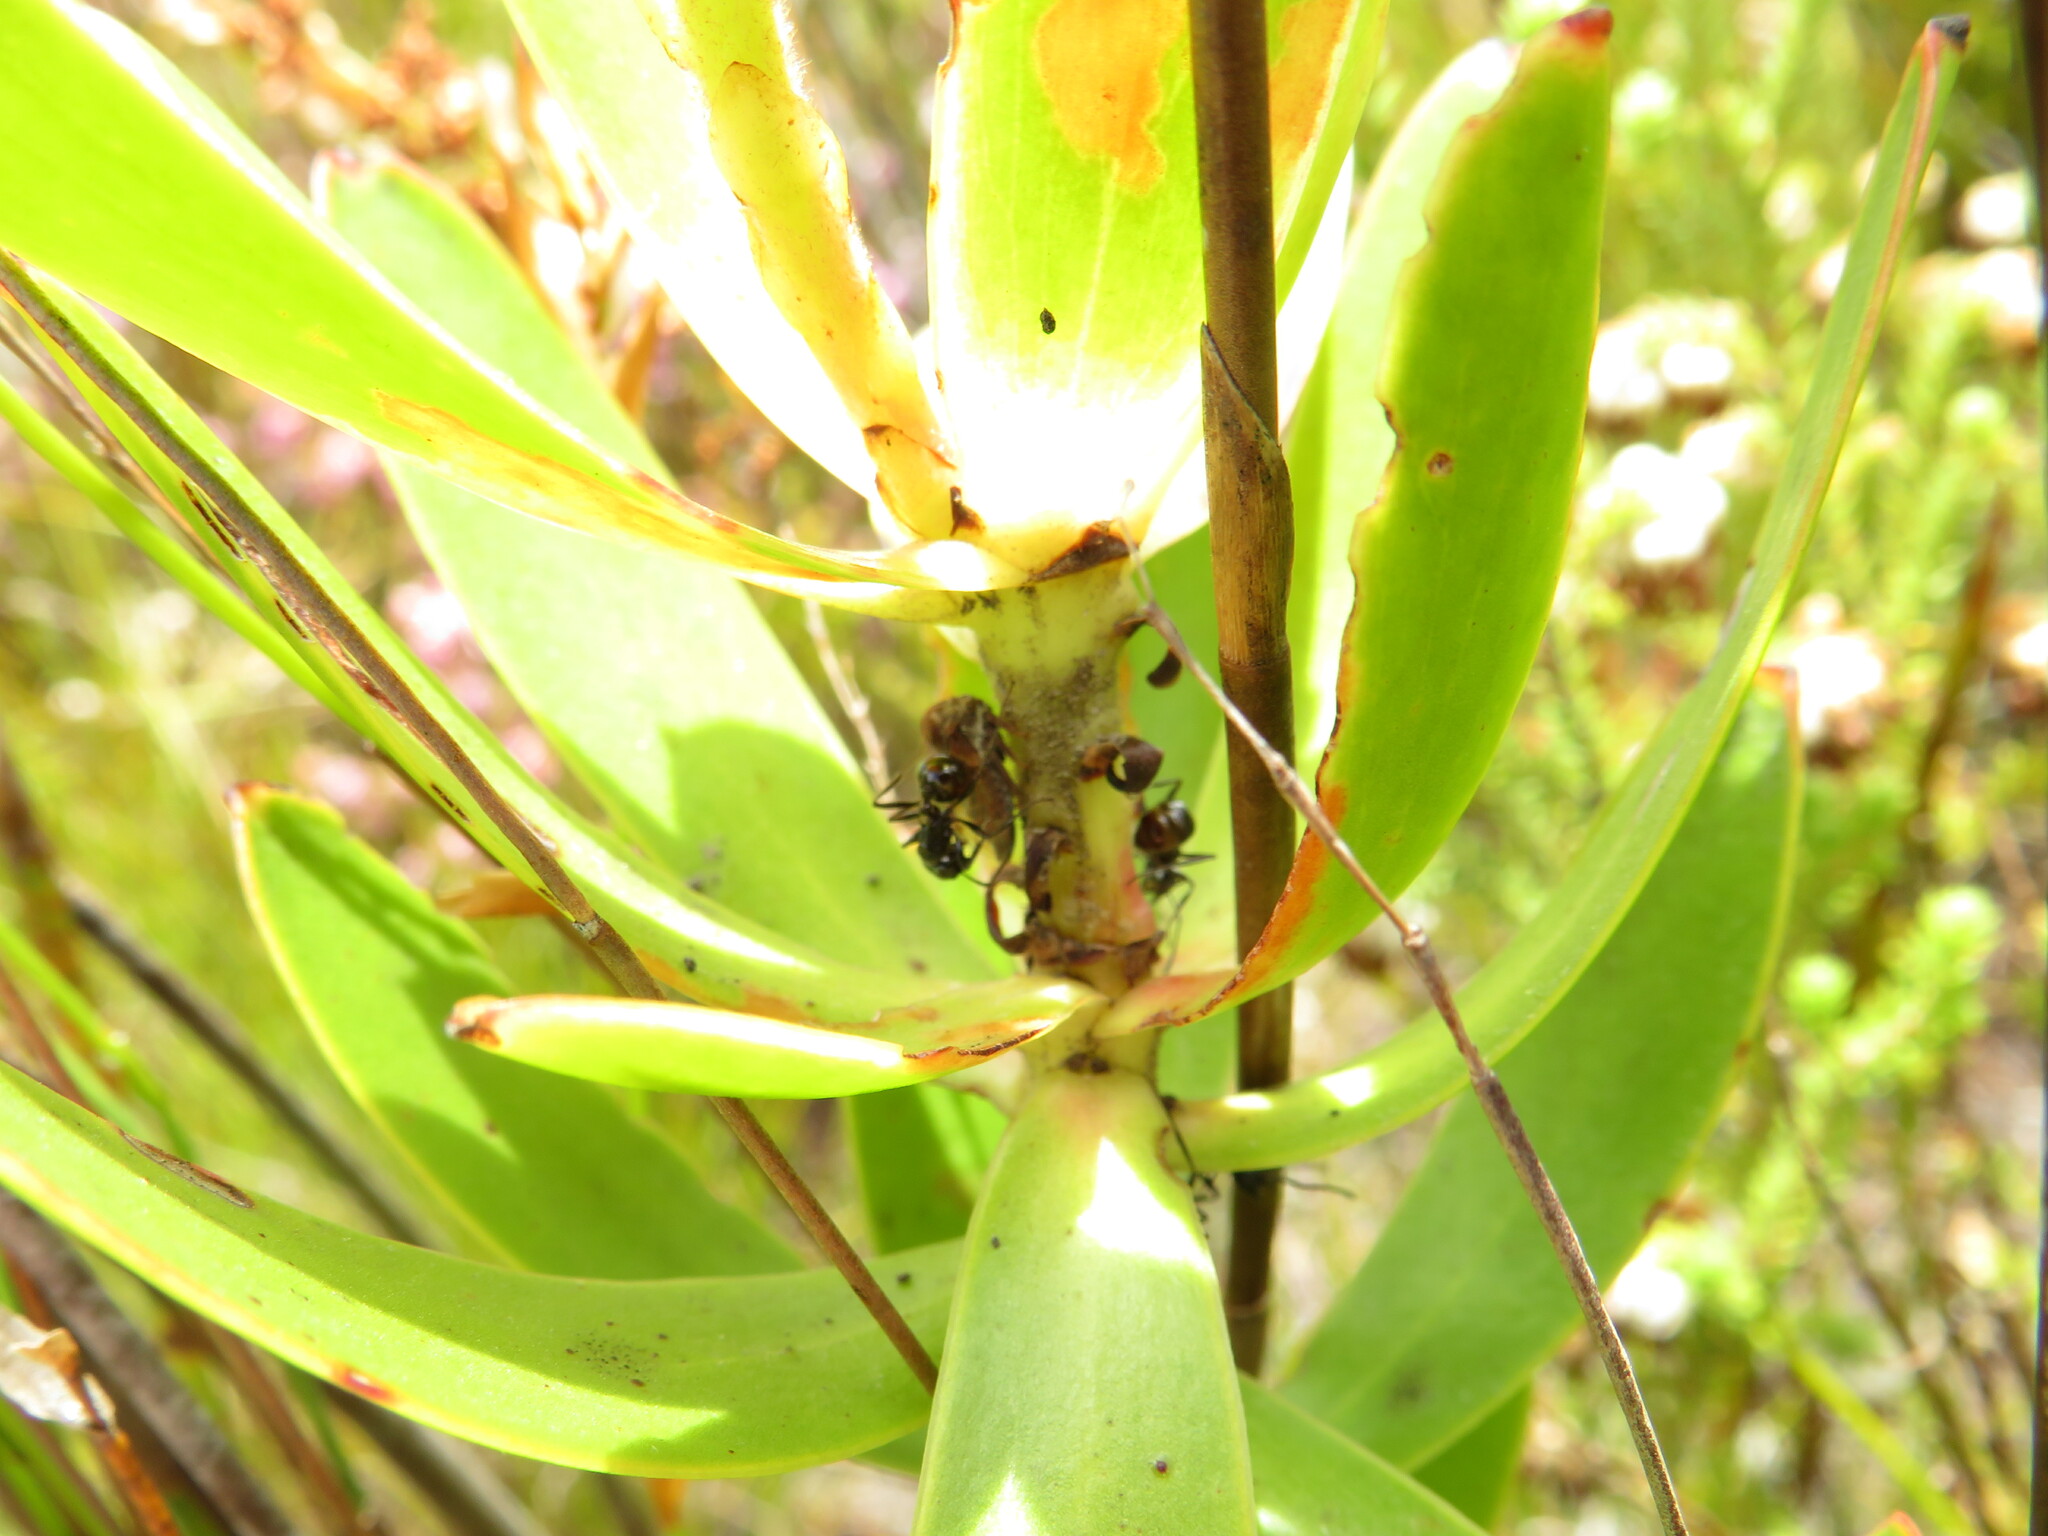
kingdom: Plantae
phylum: Tracheophyta
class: Magnoliopsida
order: Proteales
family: Proteaceae
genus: Leucadendron
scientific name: Leucadendron gandogeri
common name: Broad-leaf conebush
